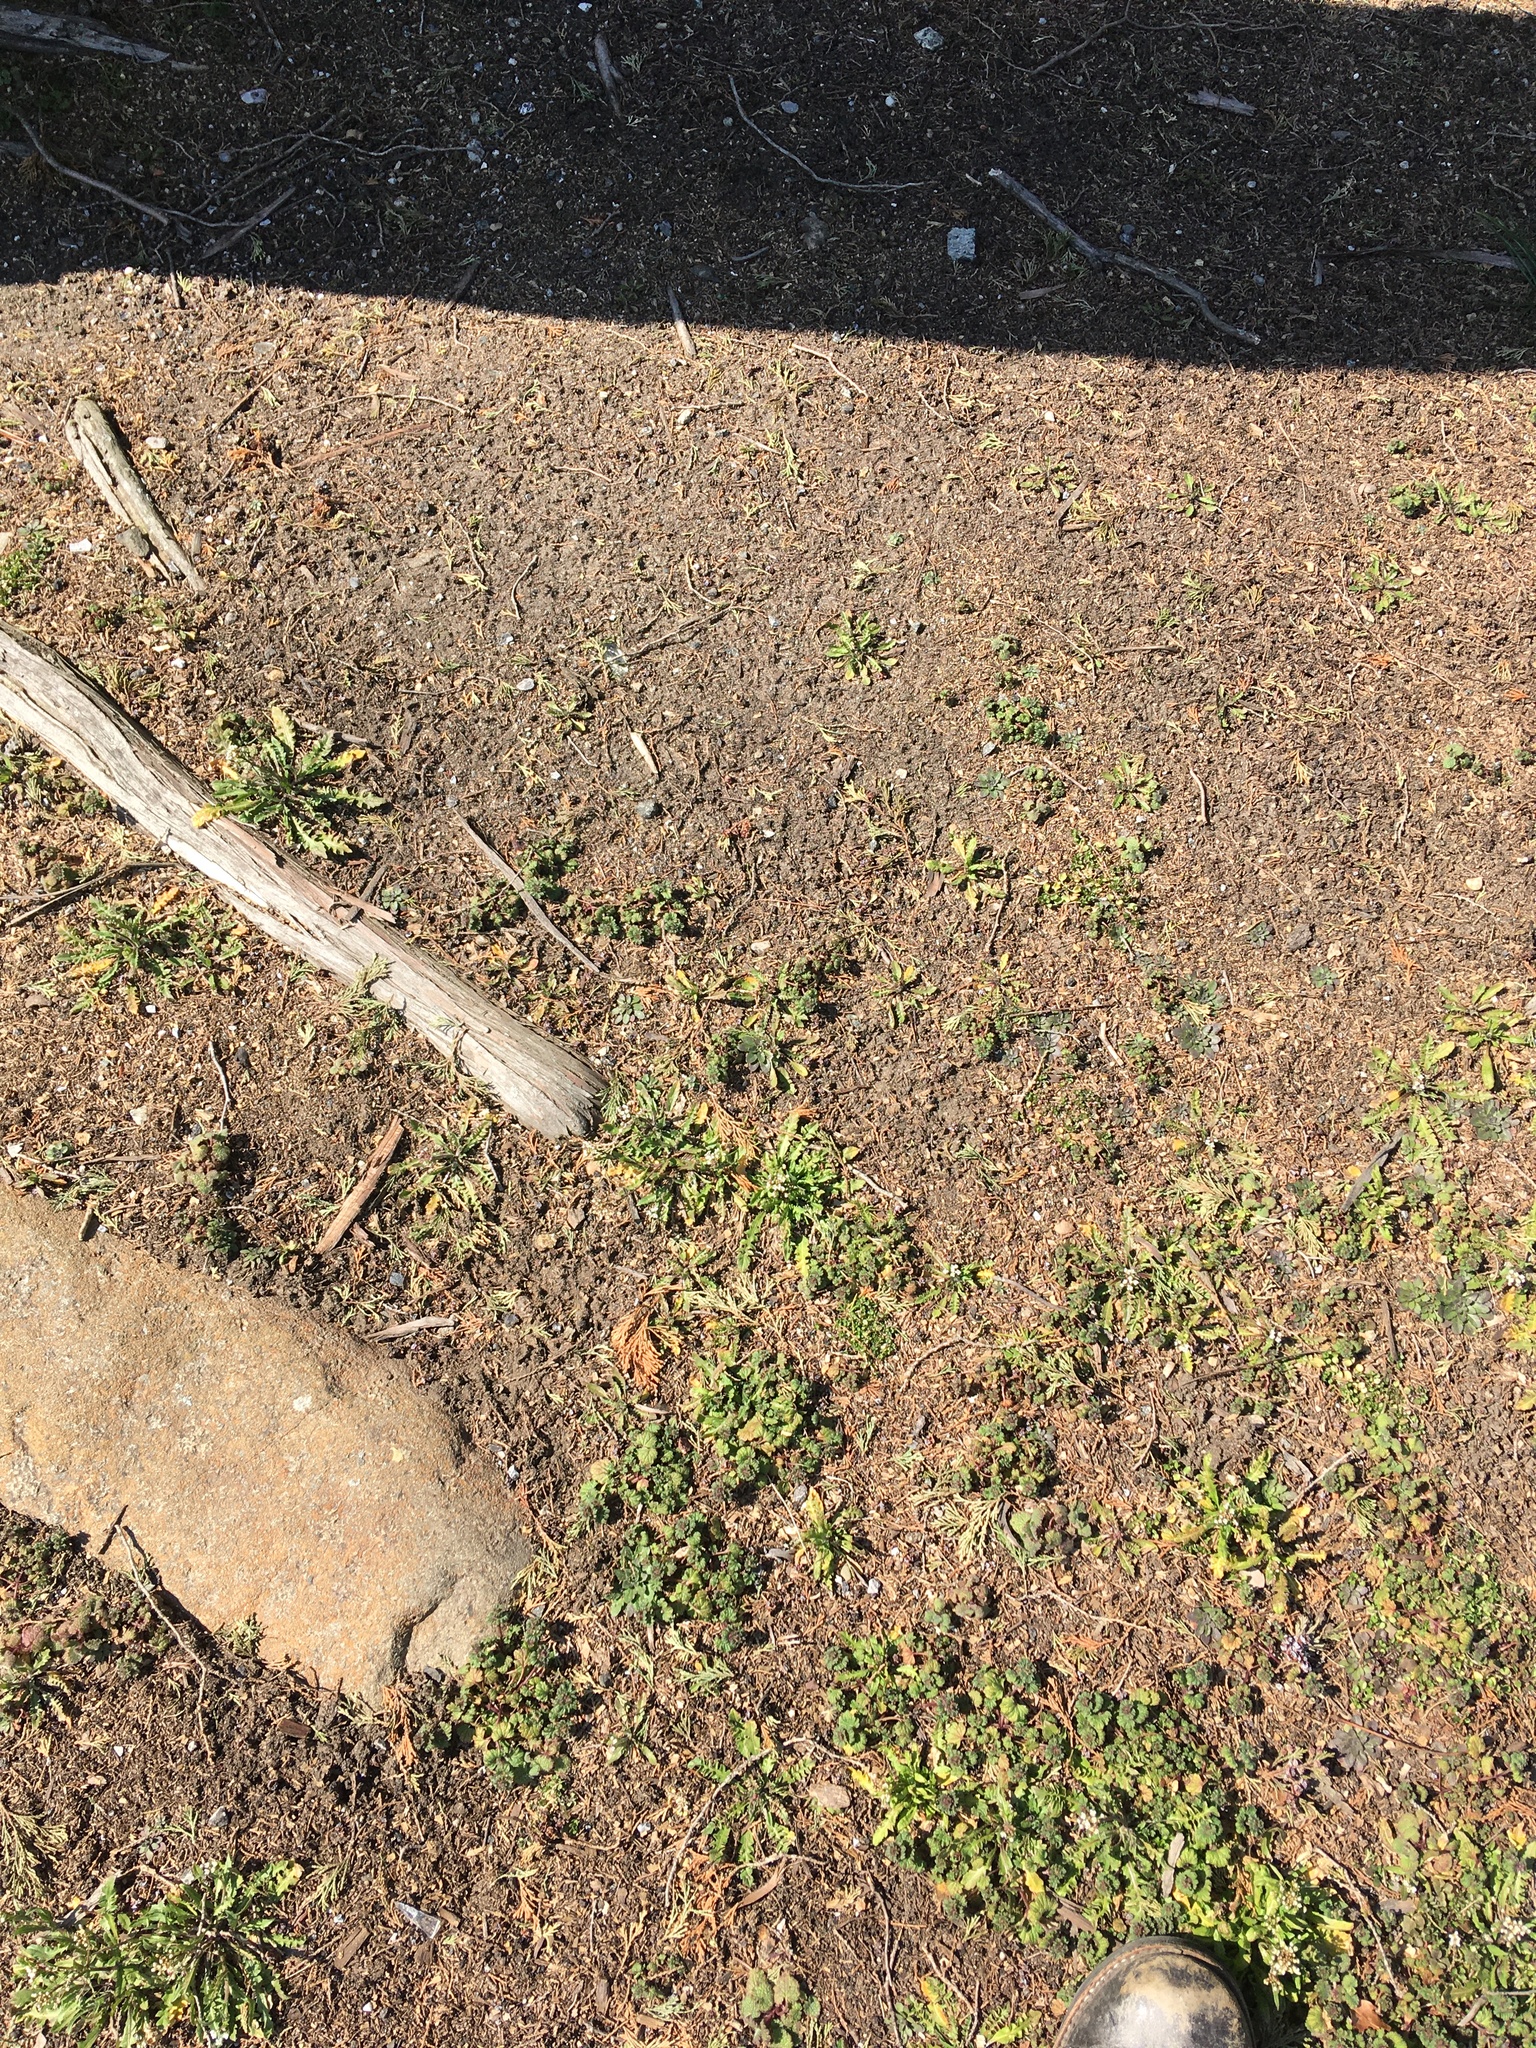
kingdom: Plantae
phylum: Tracheophyta
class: Magnoliopsida
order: Brassicales
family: Brassicaceae
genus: Capsella
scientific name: Capsella bursa-pastoris
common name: Shepherd's purse
